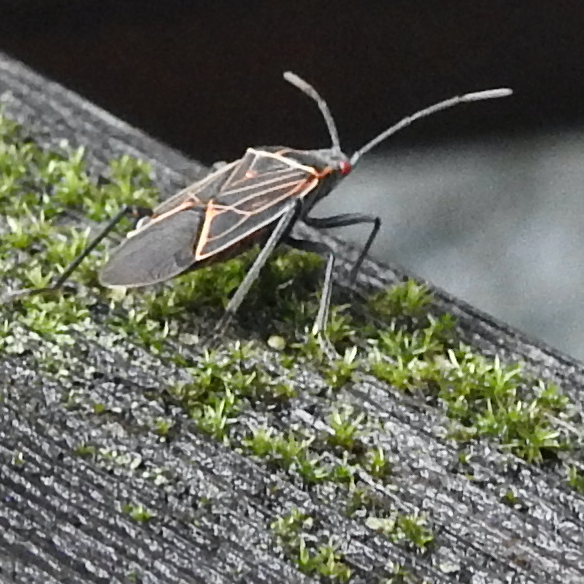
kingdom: Animalia
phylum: Arthropoda
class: Insecta
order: Hemiptera
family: Rhopalidae
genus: Boisea
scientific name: Boisea rubrolineata
